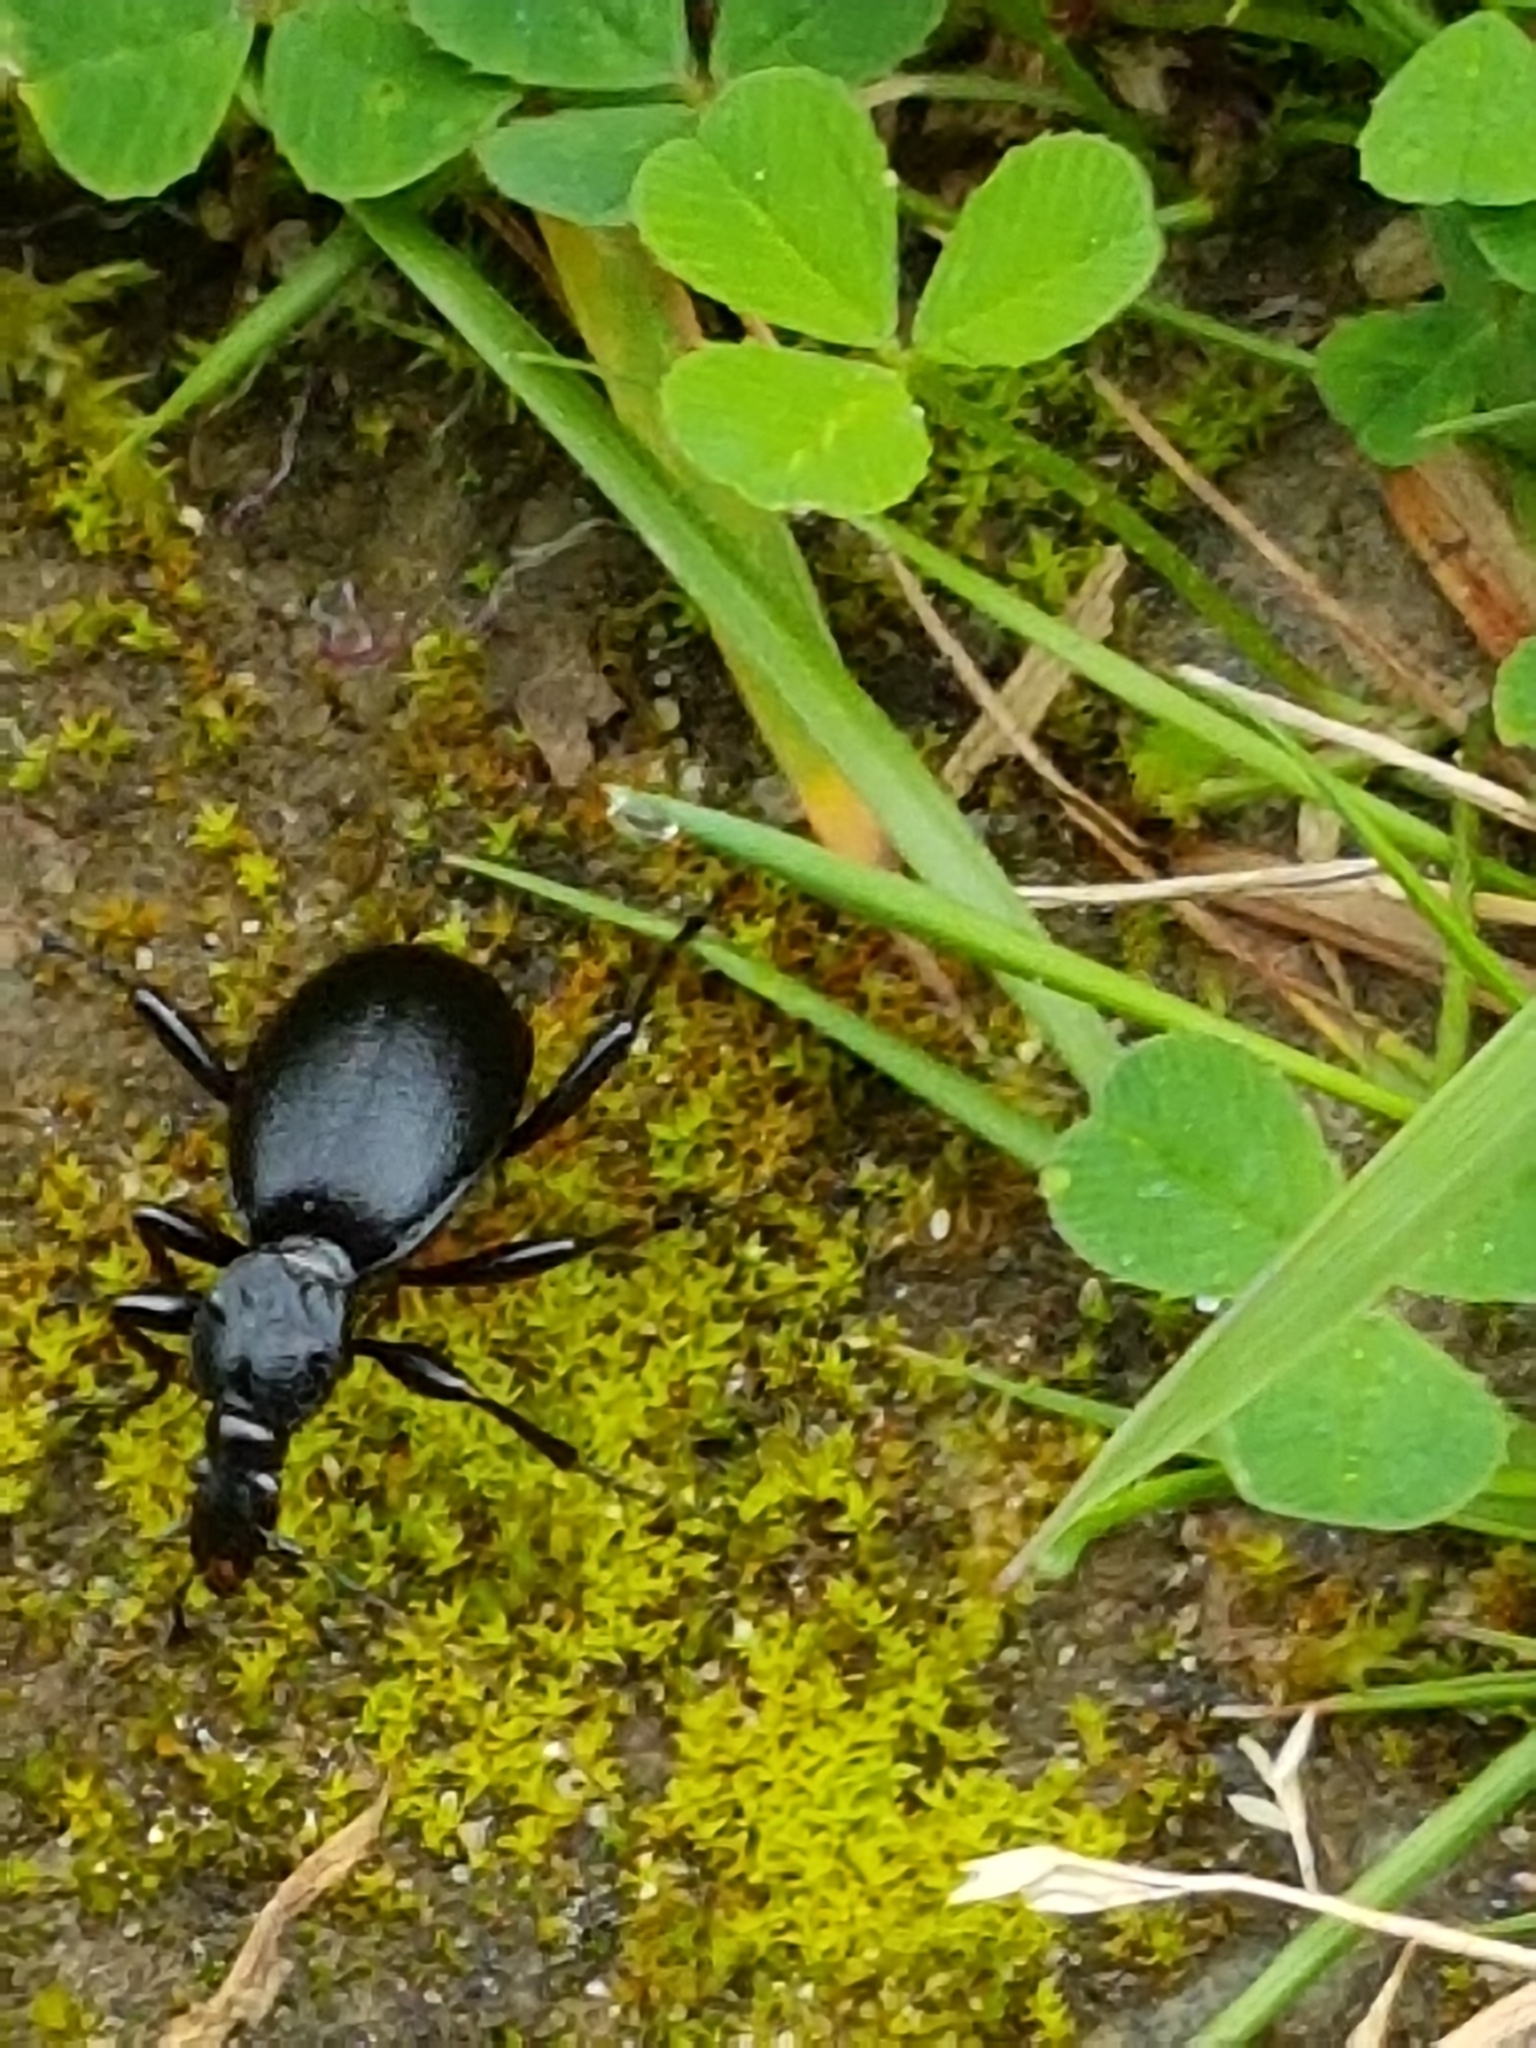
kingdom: Animalia
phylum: Arthropoda
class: Insecta
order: Coleoptera
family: Carabidae
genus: Cychrus
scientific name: Cychrus caraboides
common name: Snail hunter
